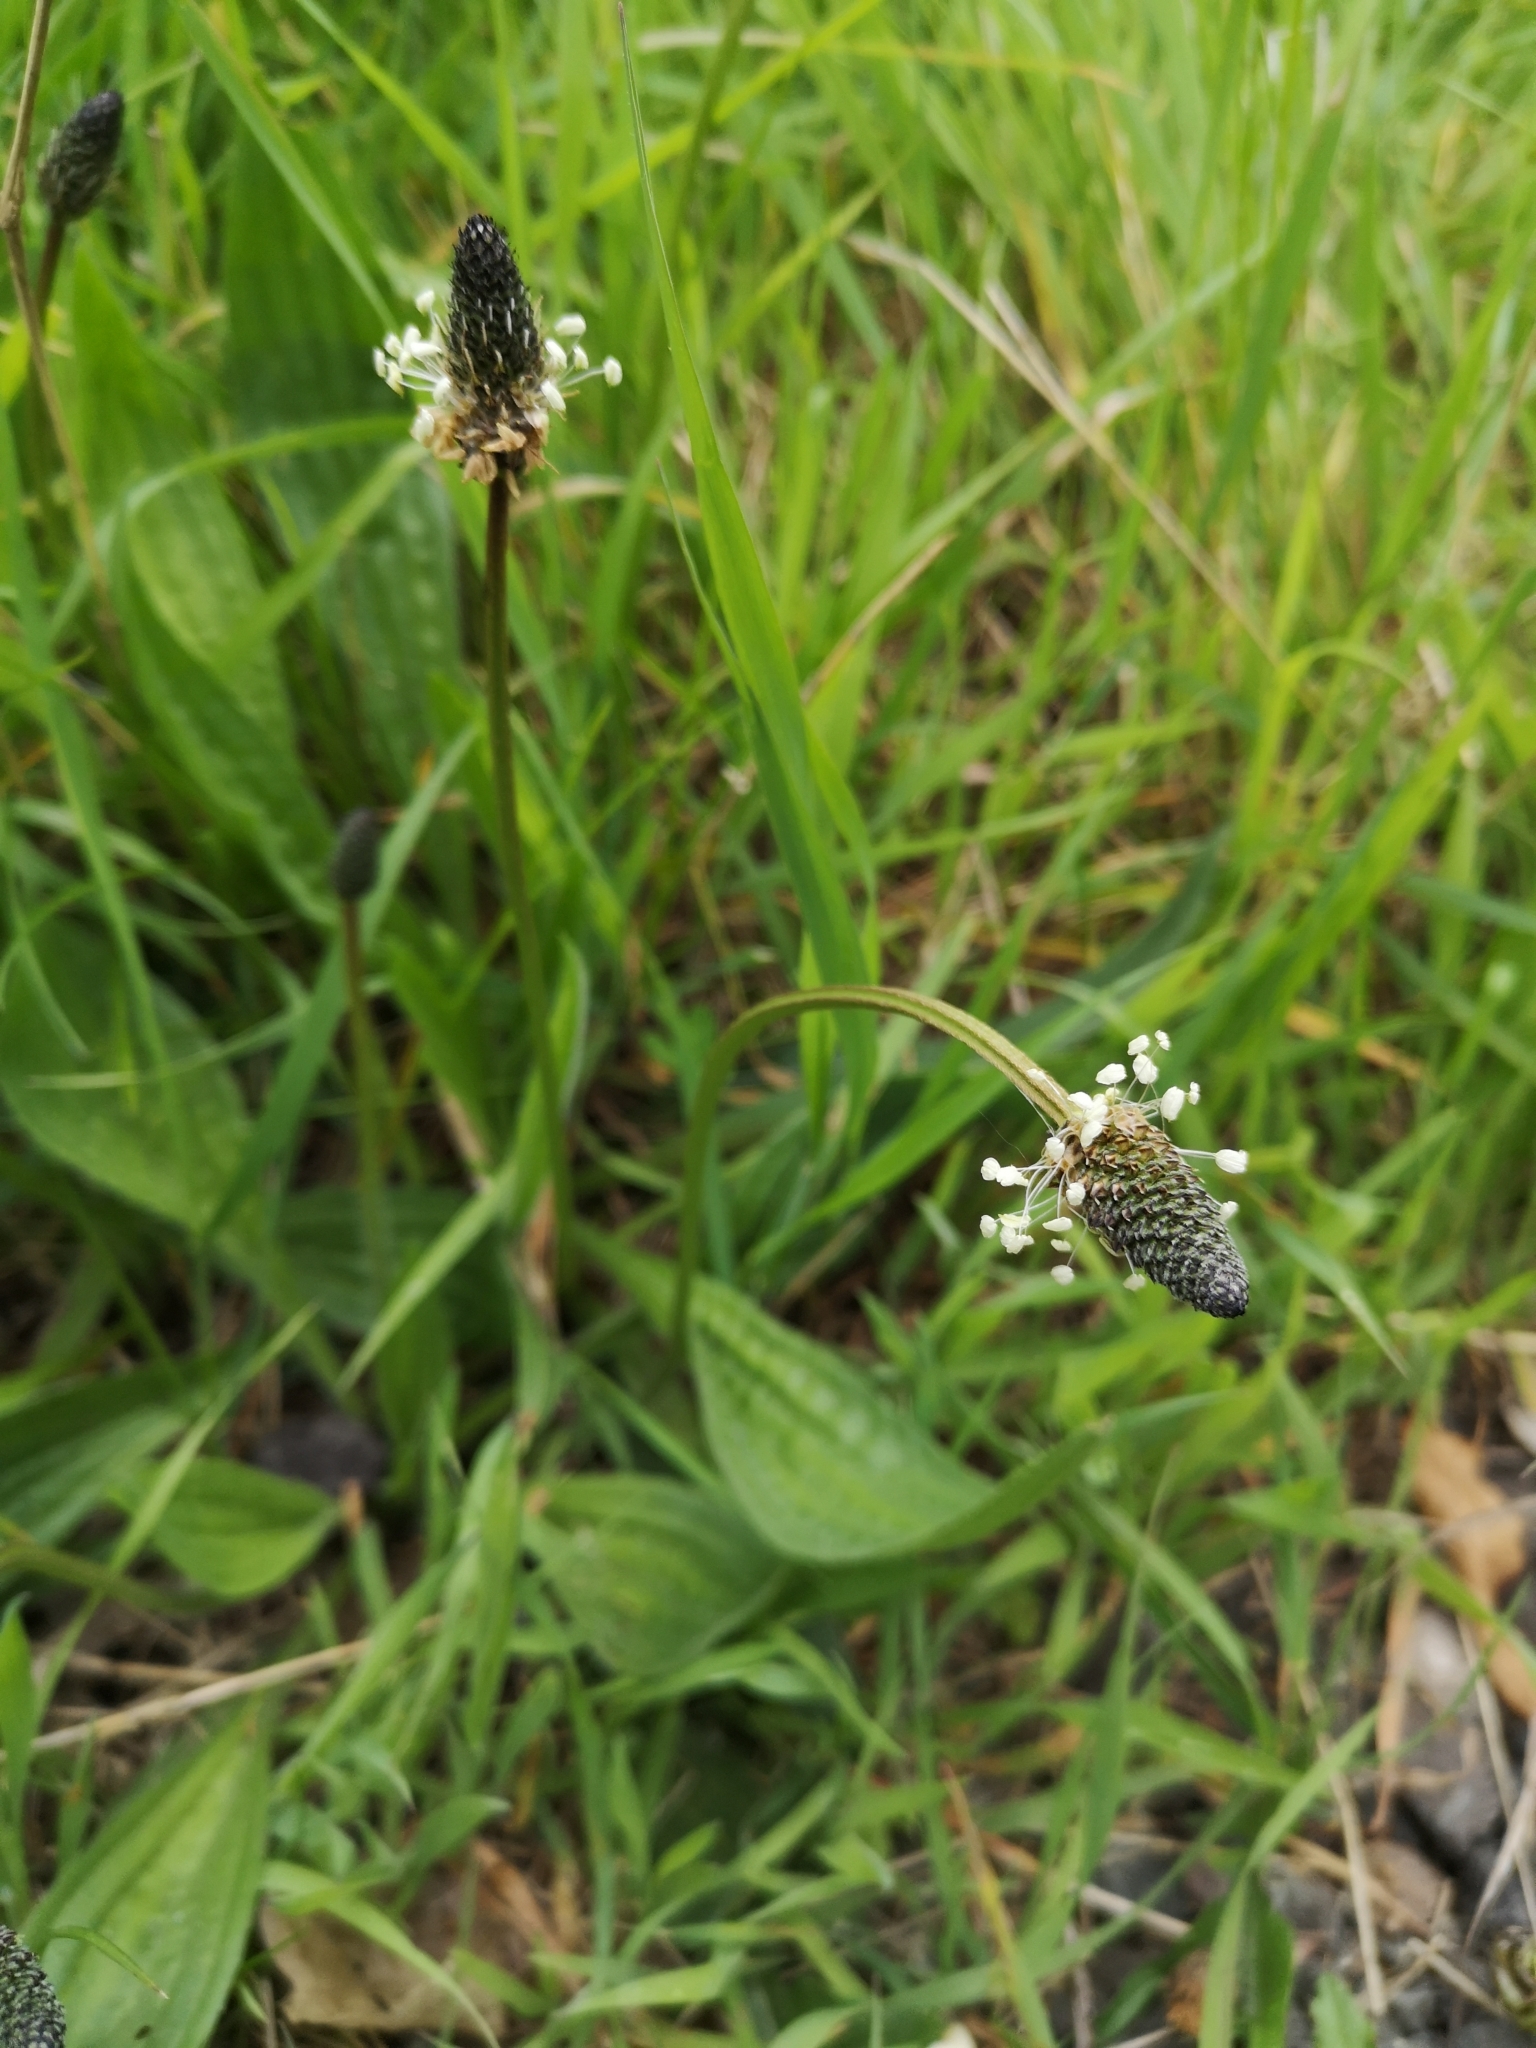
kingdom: Plantae
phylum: Tracheophyta
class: Magnoliopsida
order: Lamiales
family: Plantaginaceae
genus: Plantago
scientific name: Plantago lanceolata
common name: Ribwort plantain
